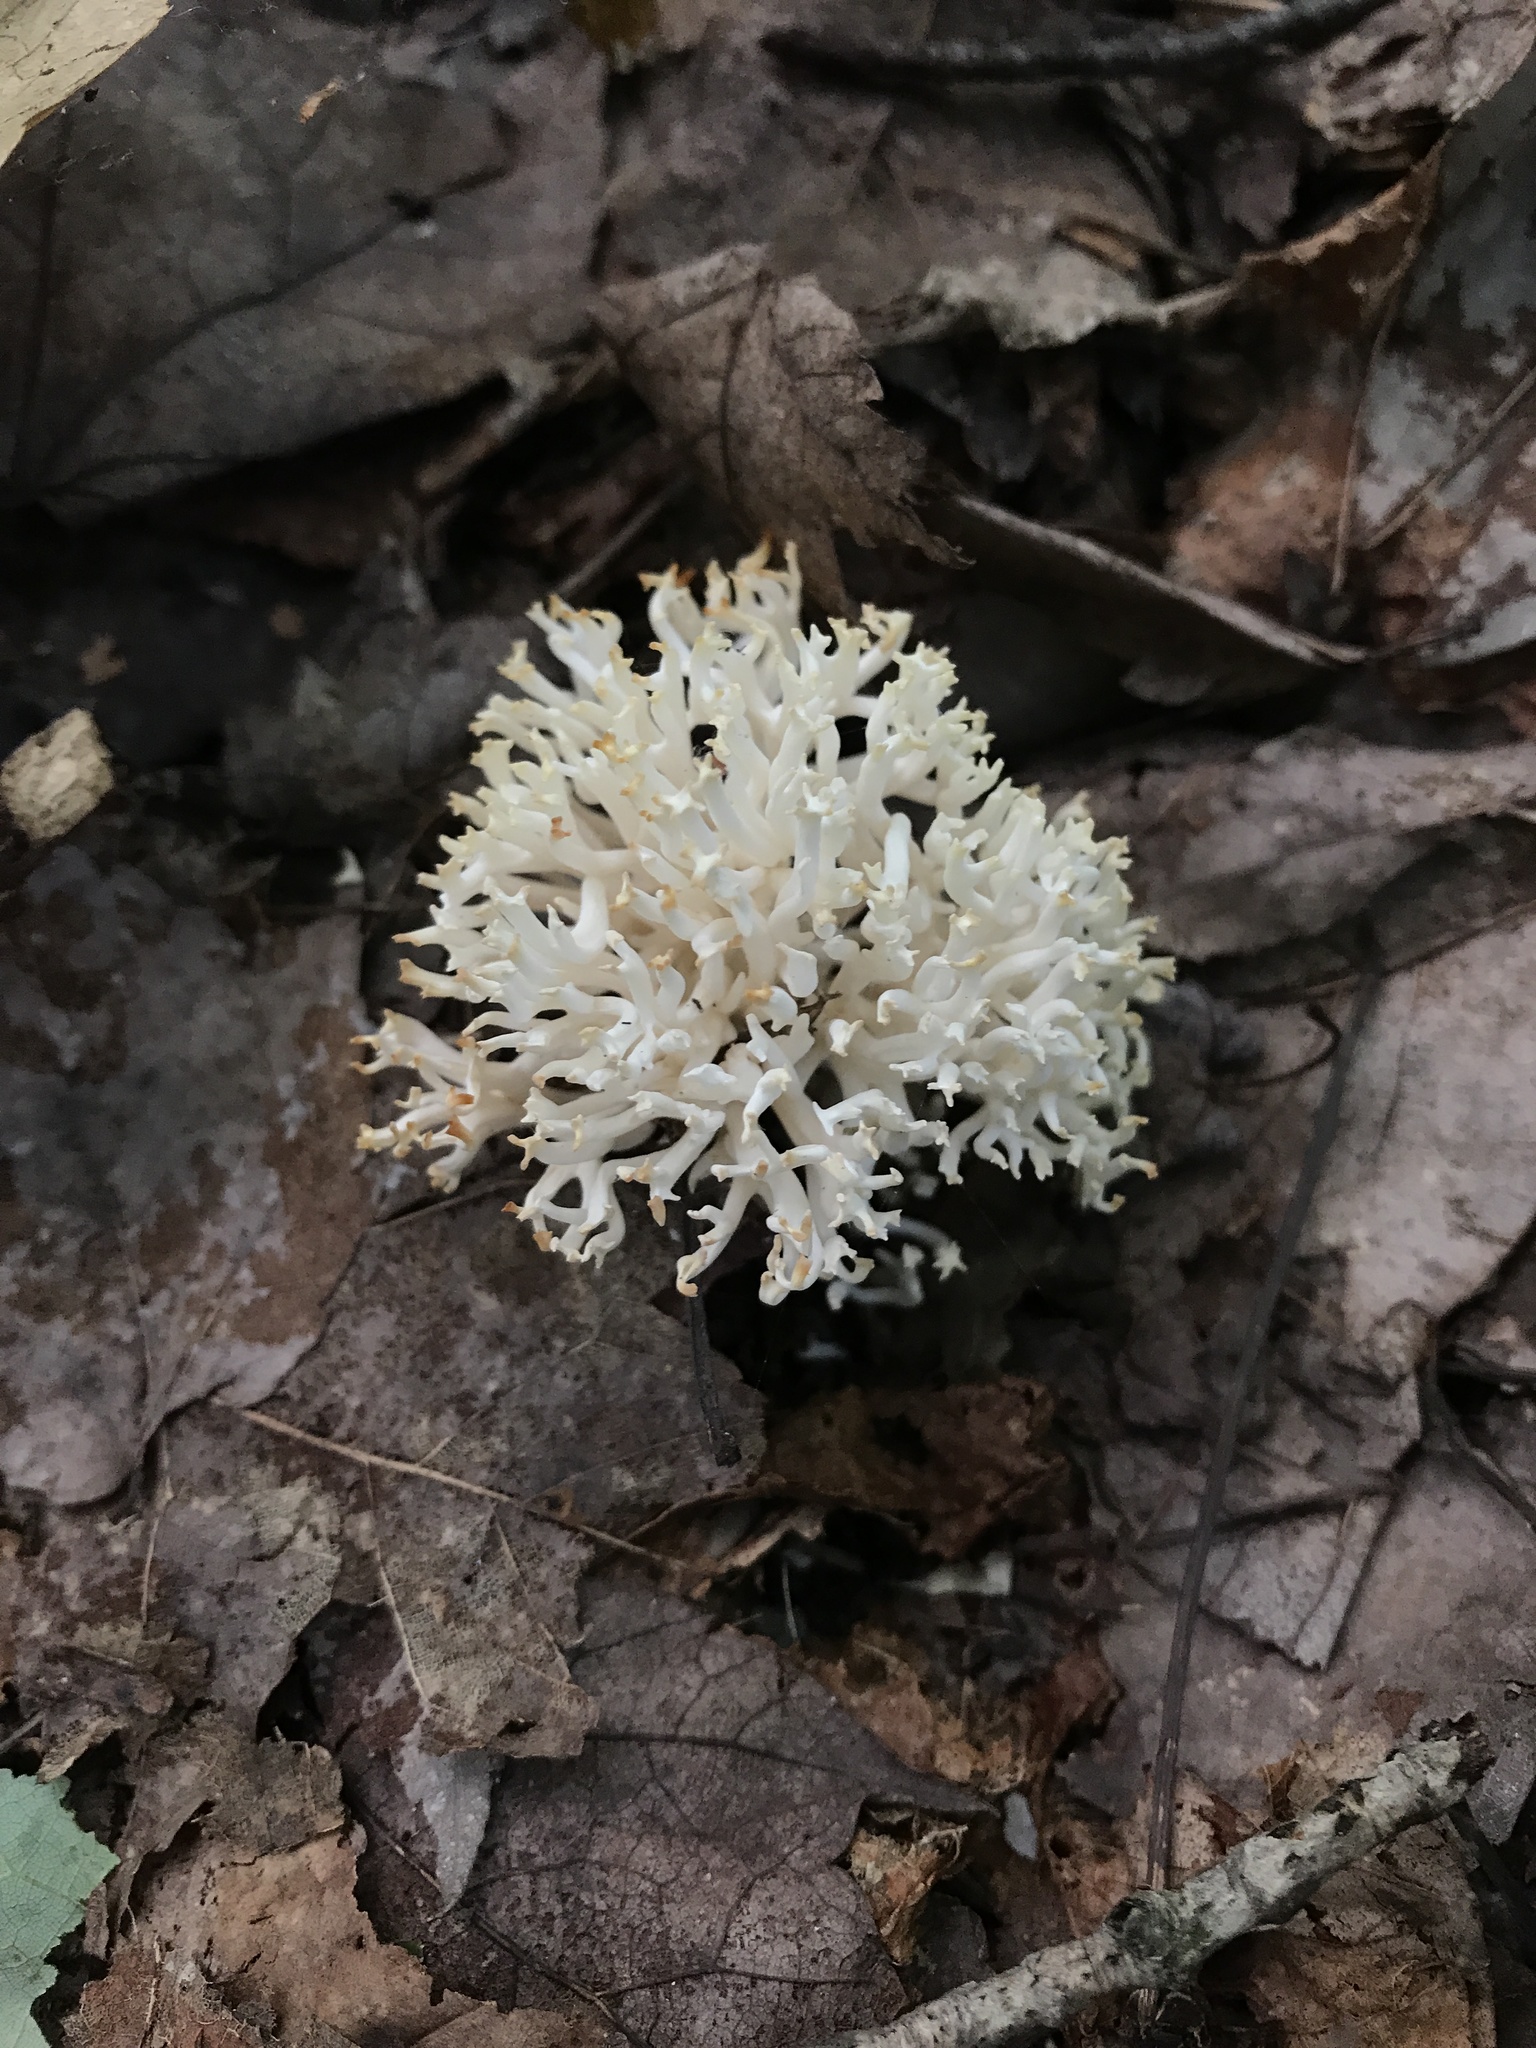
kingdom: Fungi
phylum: Basidiomycota
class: Agaricomycetes
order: Agaricales
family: Clavariaceae
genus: Ramariopsis
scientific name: Ramariopsis kunzei
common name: Ivory coral
